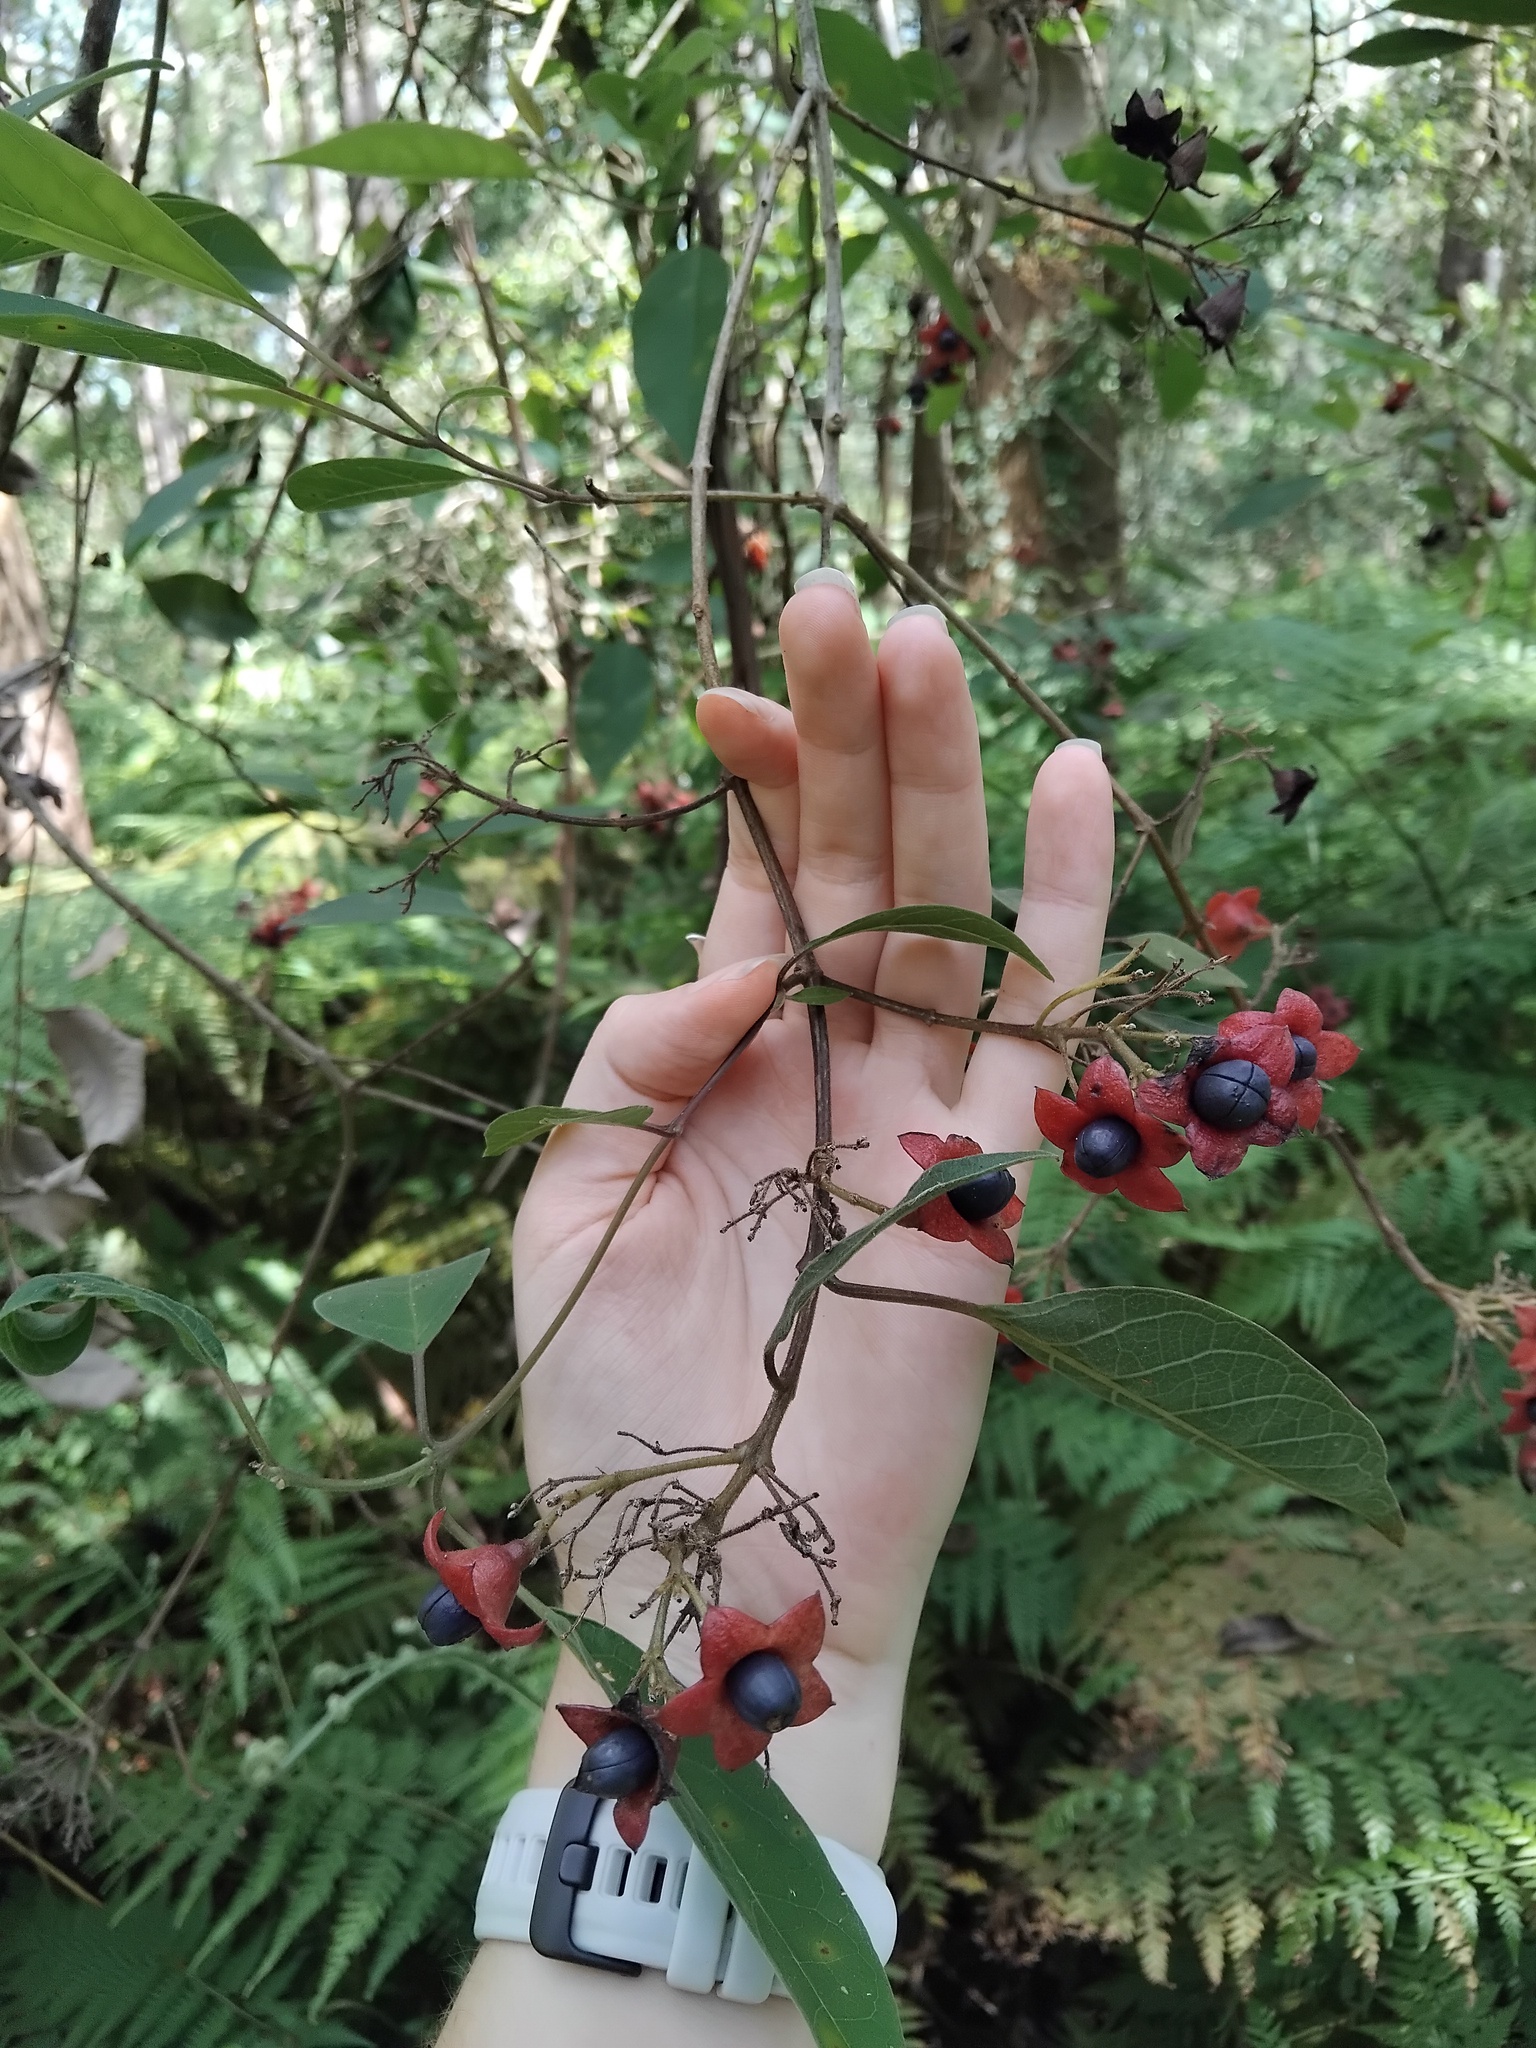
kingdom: Plantae
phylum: Tracheophyta
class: Magnoliopsida
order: Lamiales
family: Lamiaceae
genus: Clerodendrum
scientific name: Clerodendrum tomentosum
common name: Hairy clerodendrum
